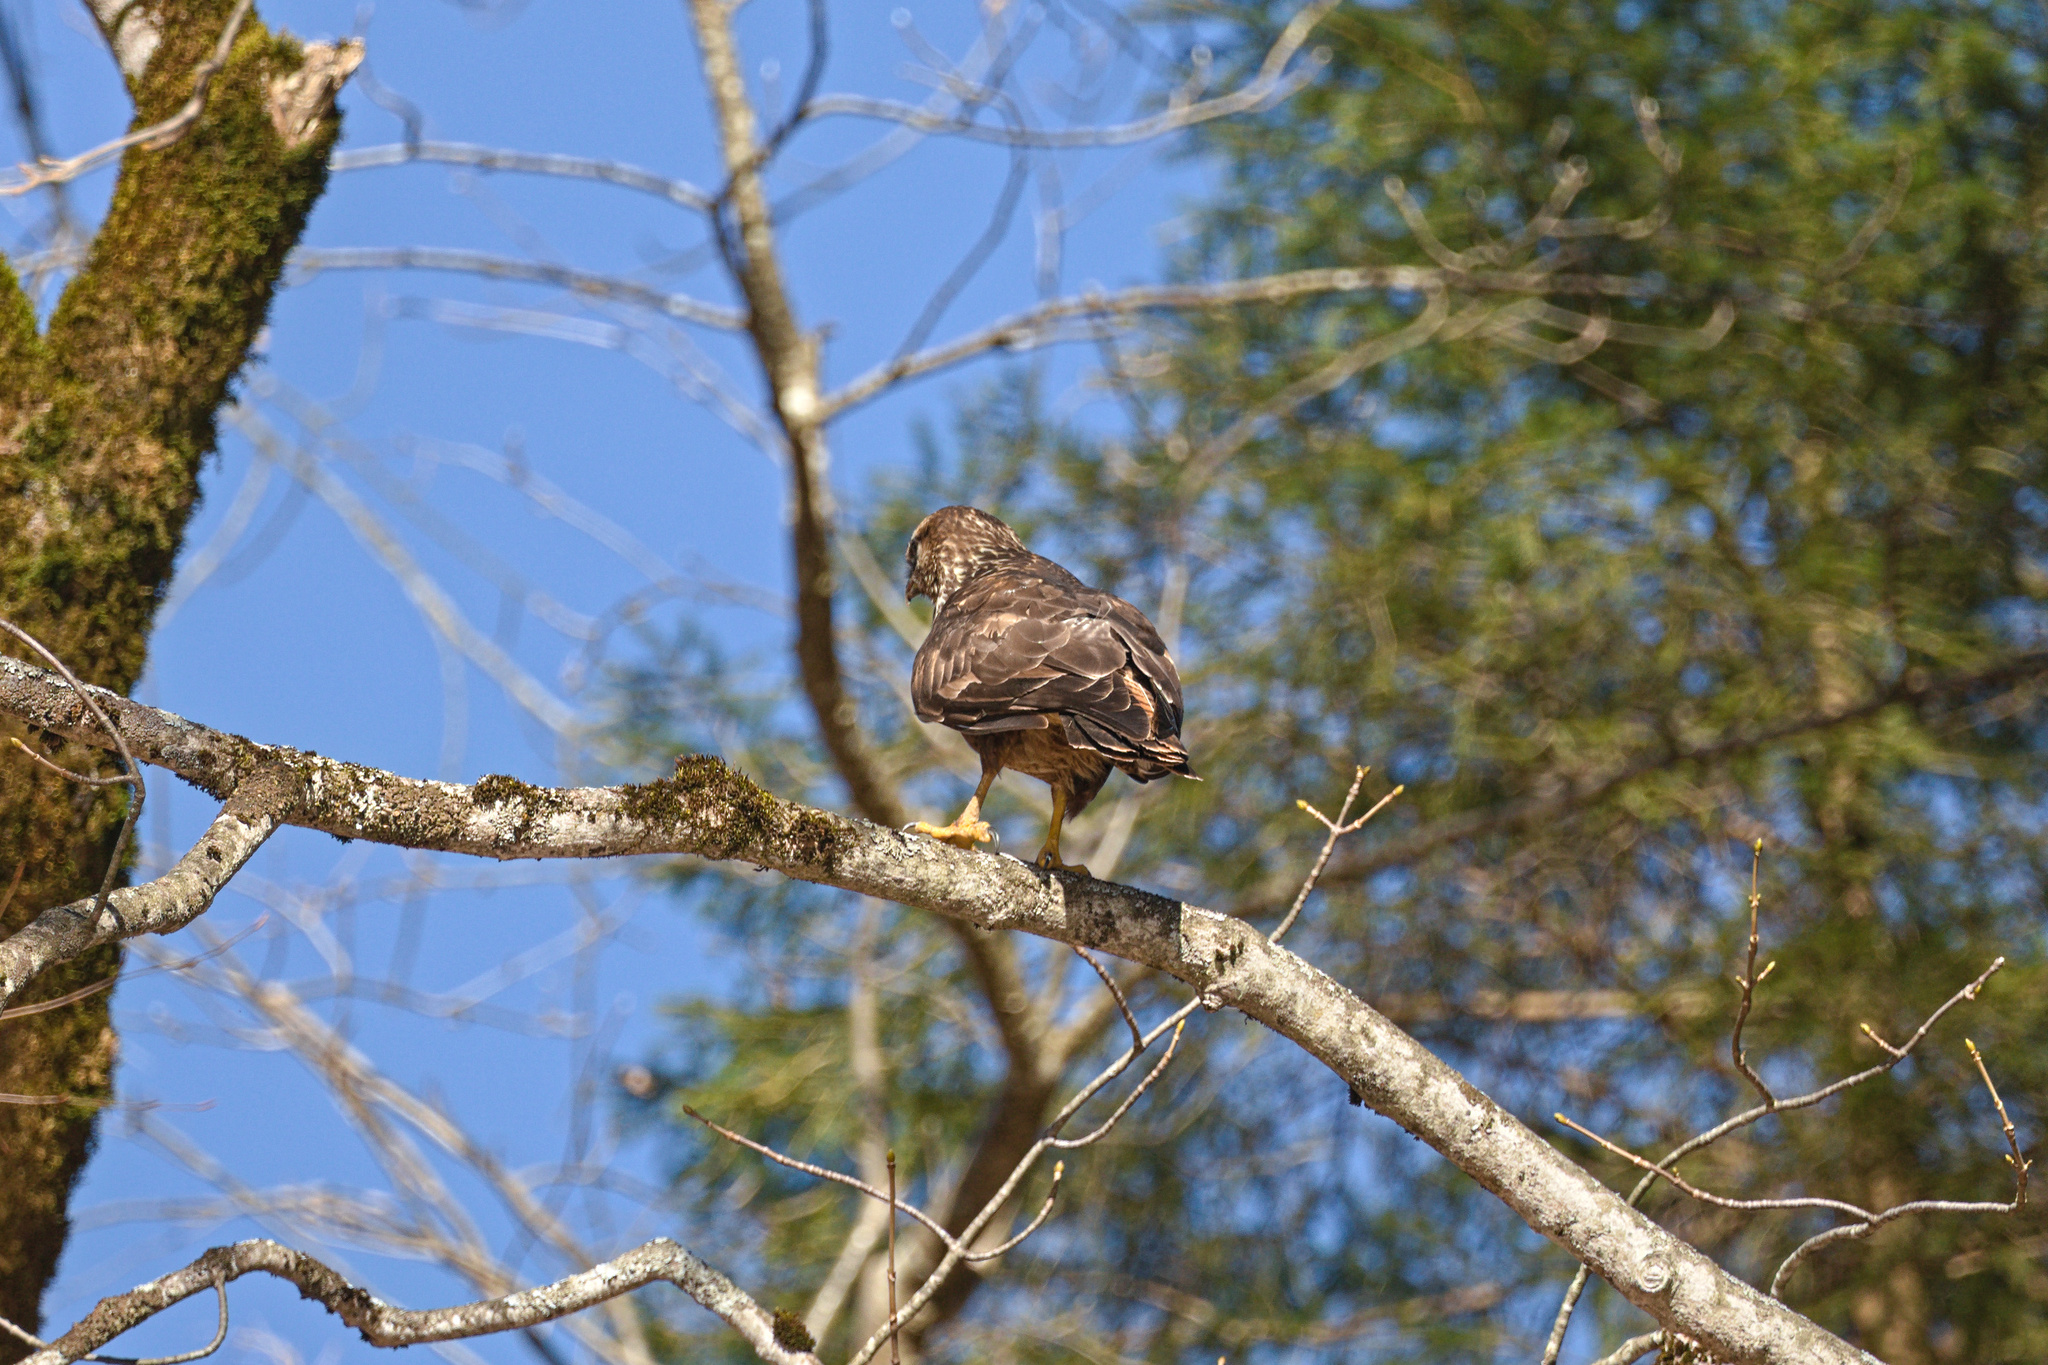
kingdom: Animalia
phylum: Chordata
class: Aves
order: Accipitriformes
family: Accipitridae
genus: Buteo
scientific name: Buteo buteo
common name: Common buzzard
